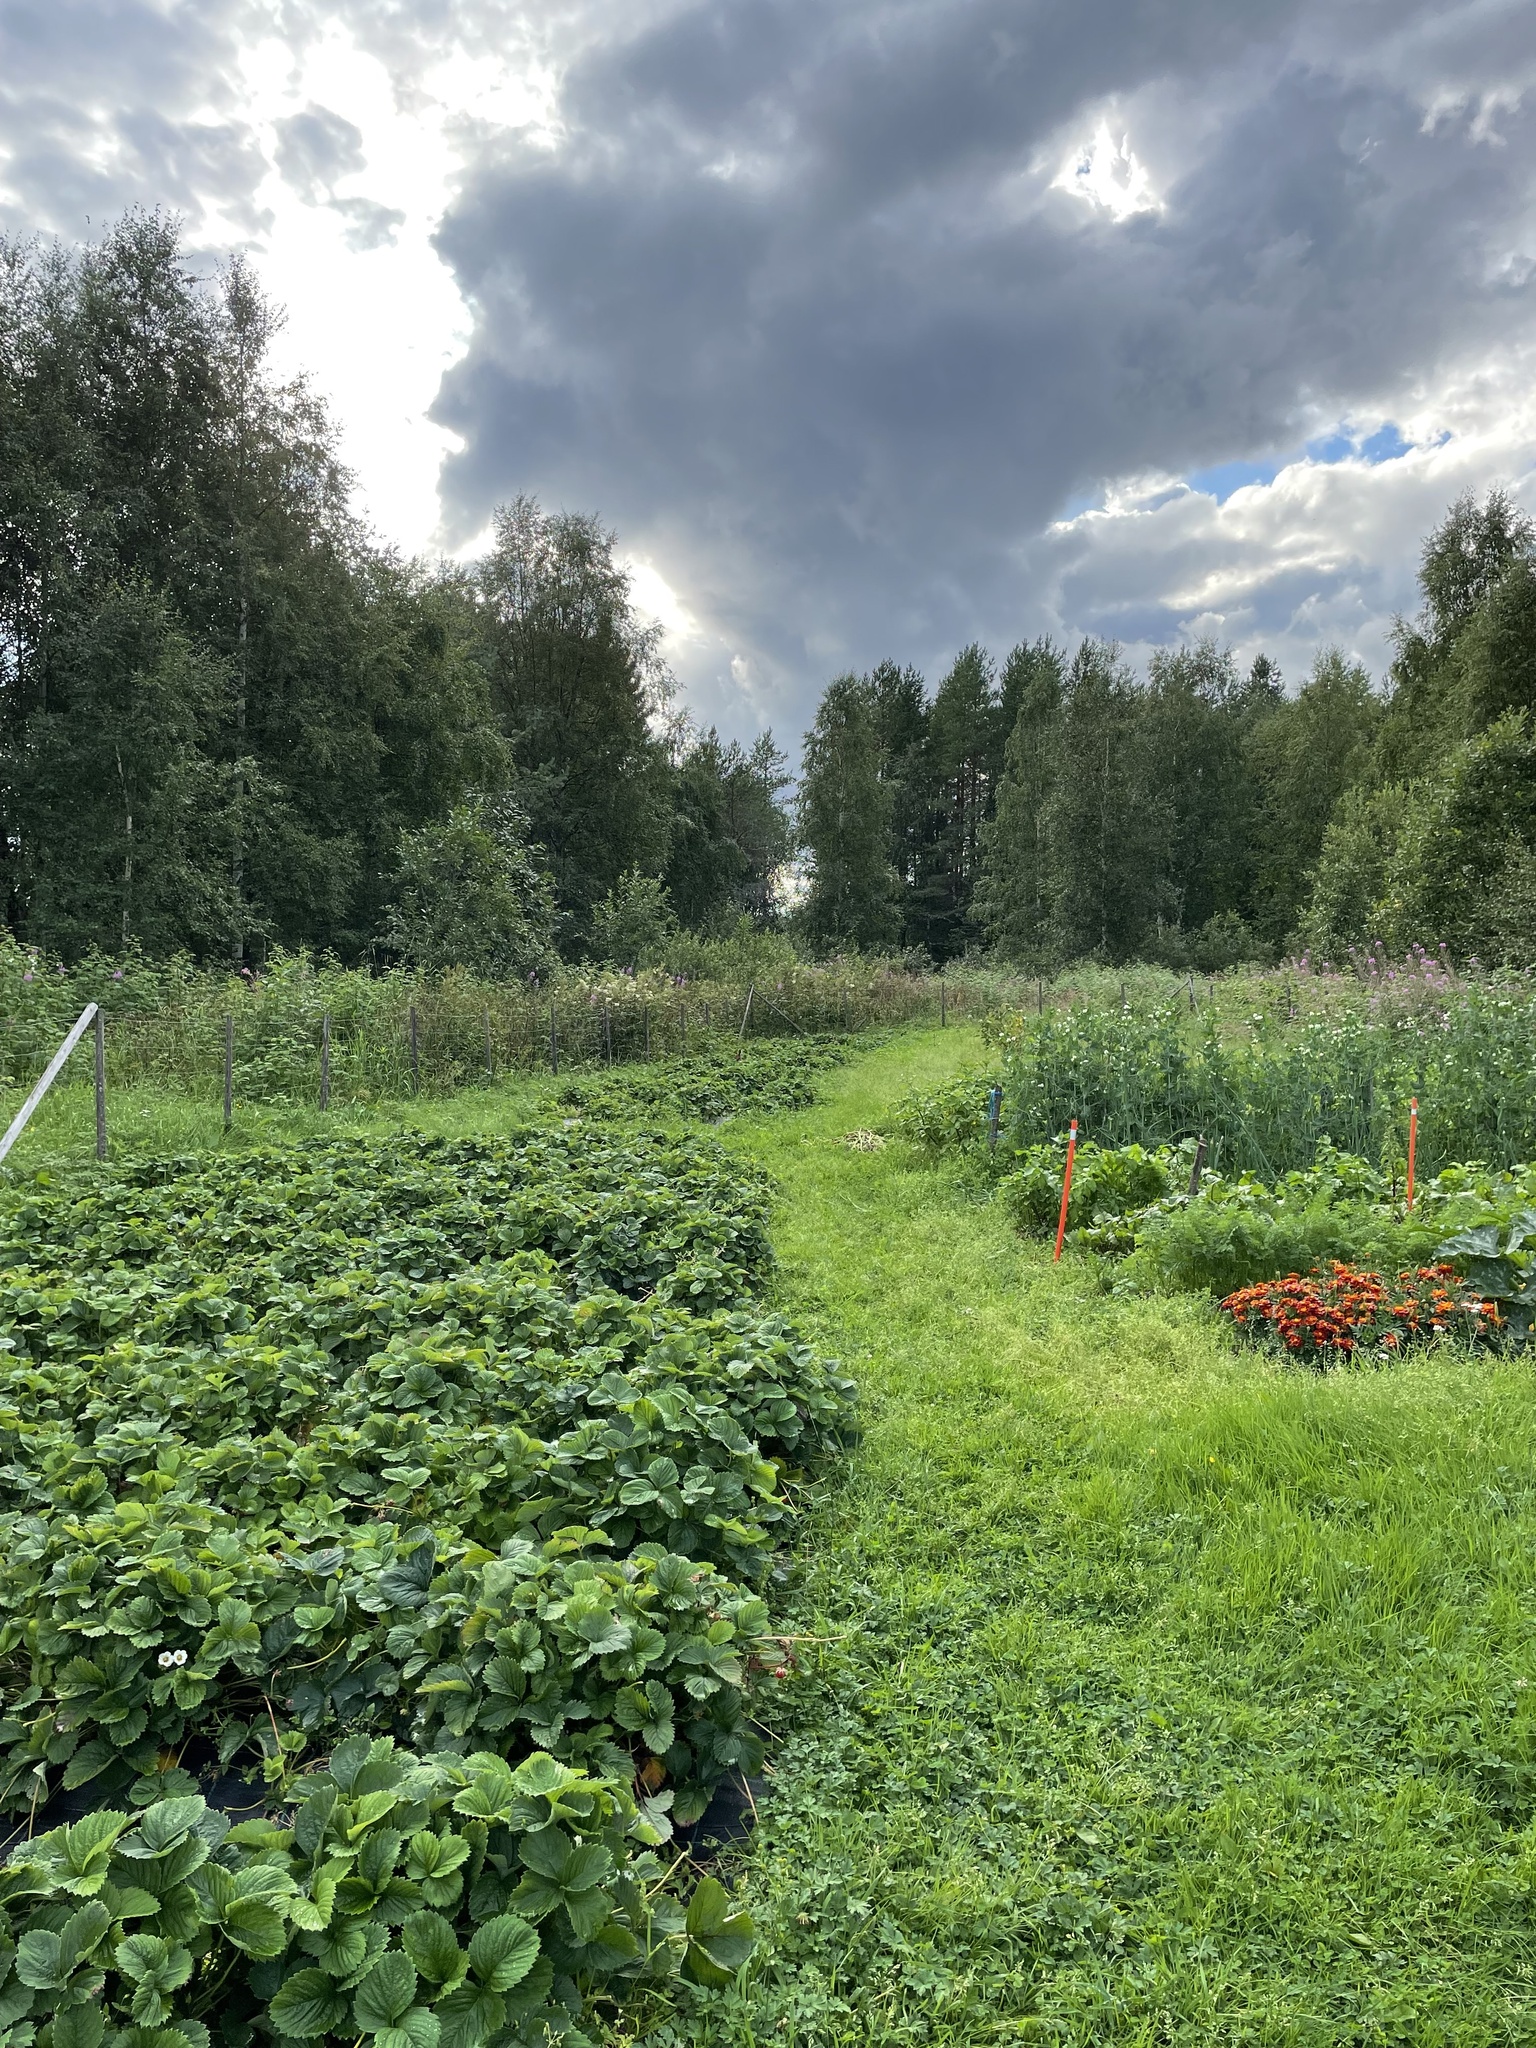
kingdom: Animalia
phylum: Chordata
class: Mammalia
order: Lagomorpha
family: Leporidae
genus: Lepus
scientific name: Lepus timidus
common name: Mountain hare
